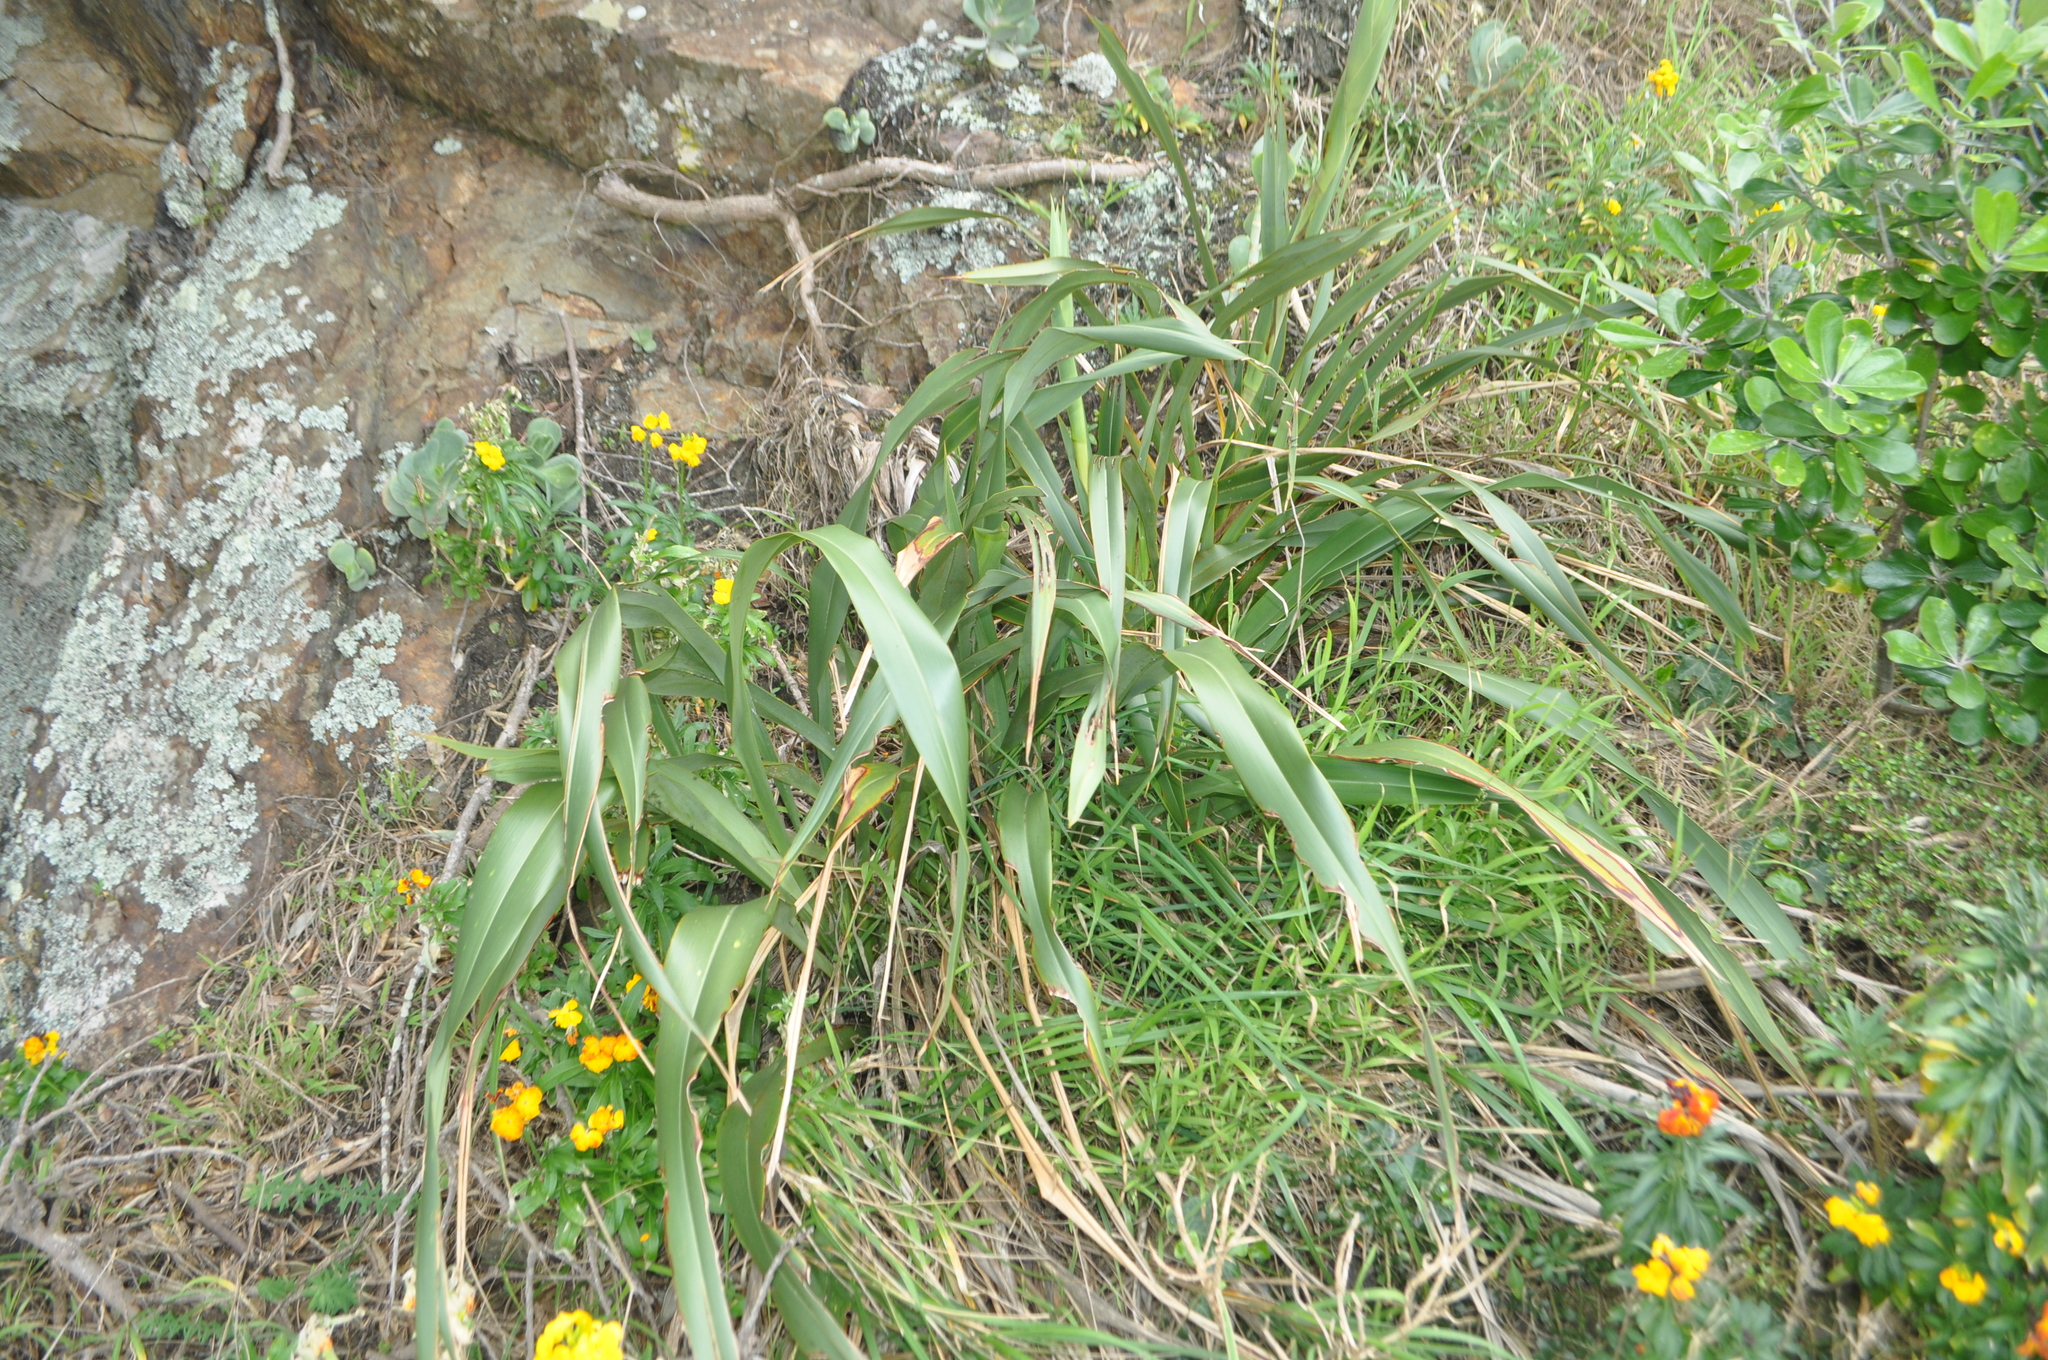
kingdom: Plantae
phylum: Tracheophyta
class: Liliopsida
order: Asparagales
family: Asphodelaceae
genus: Phormium
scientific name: Phormium colensoi
